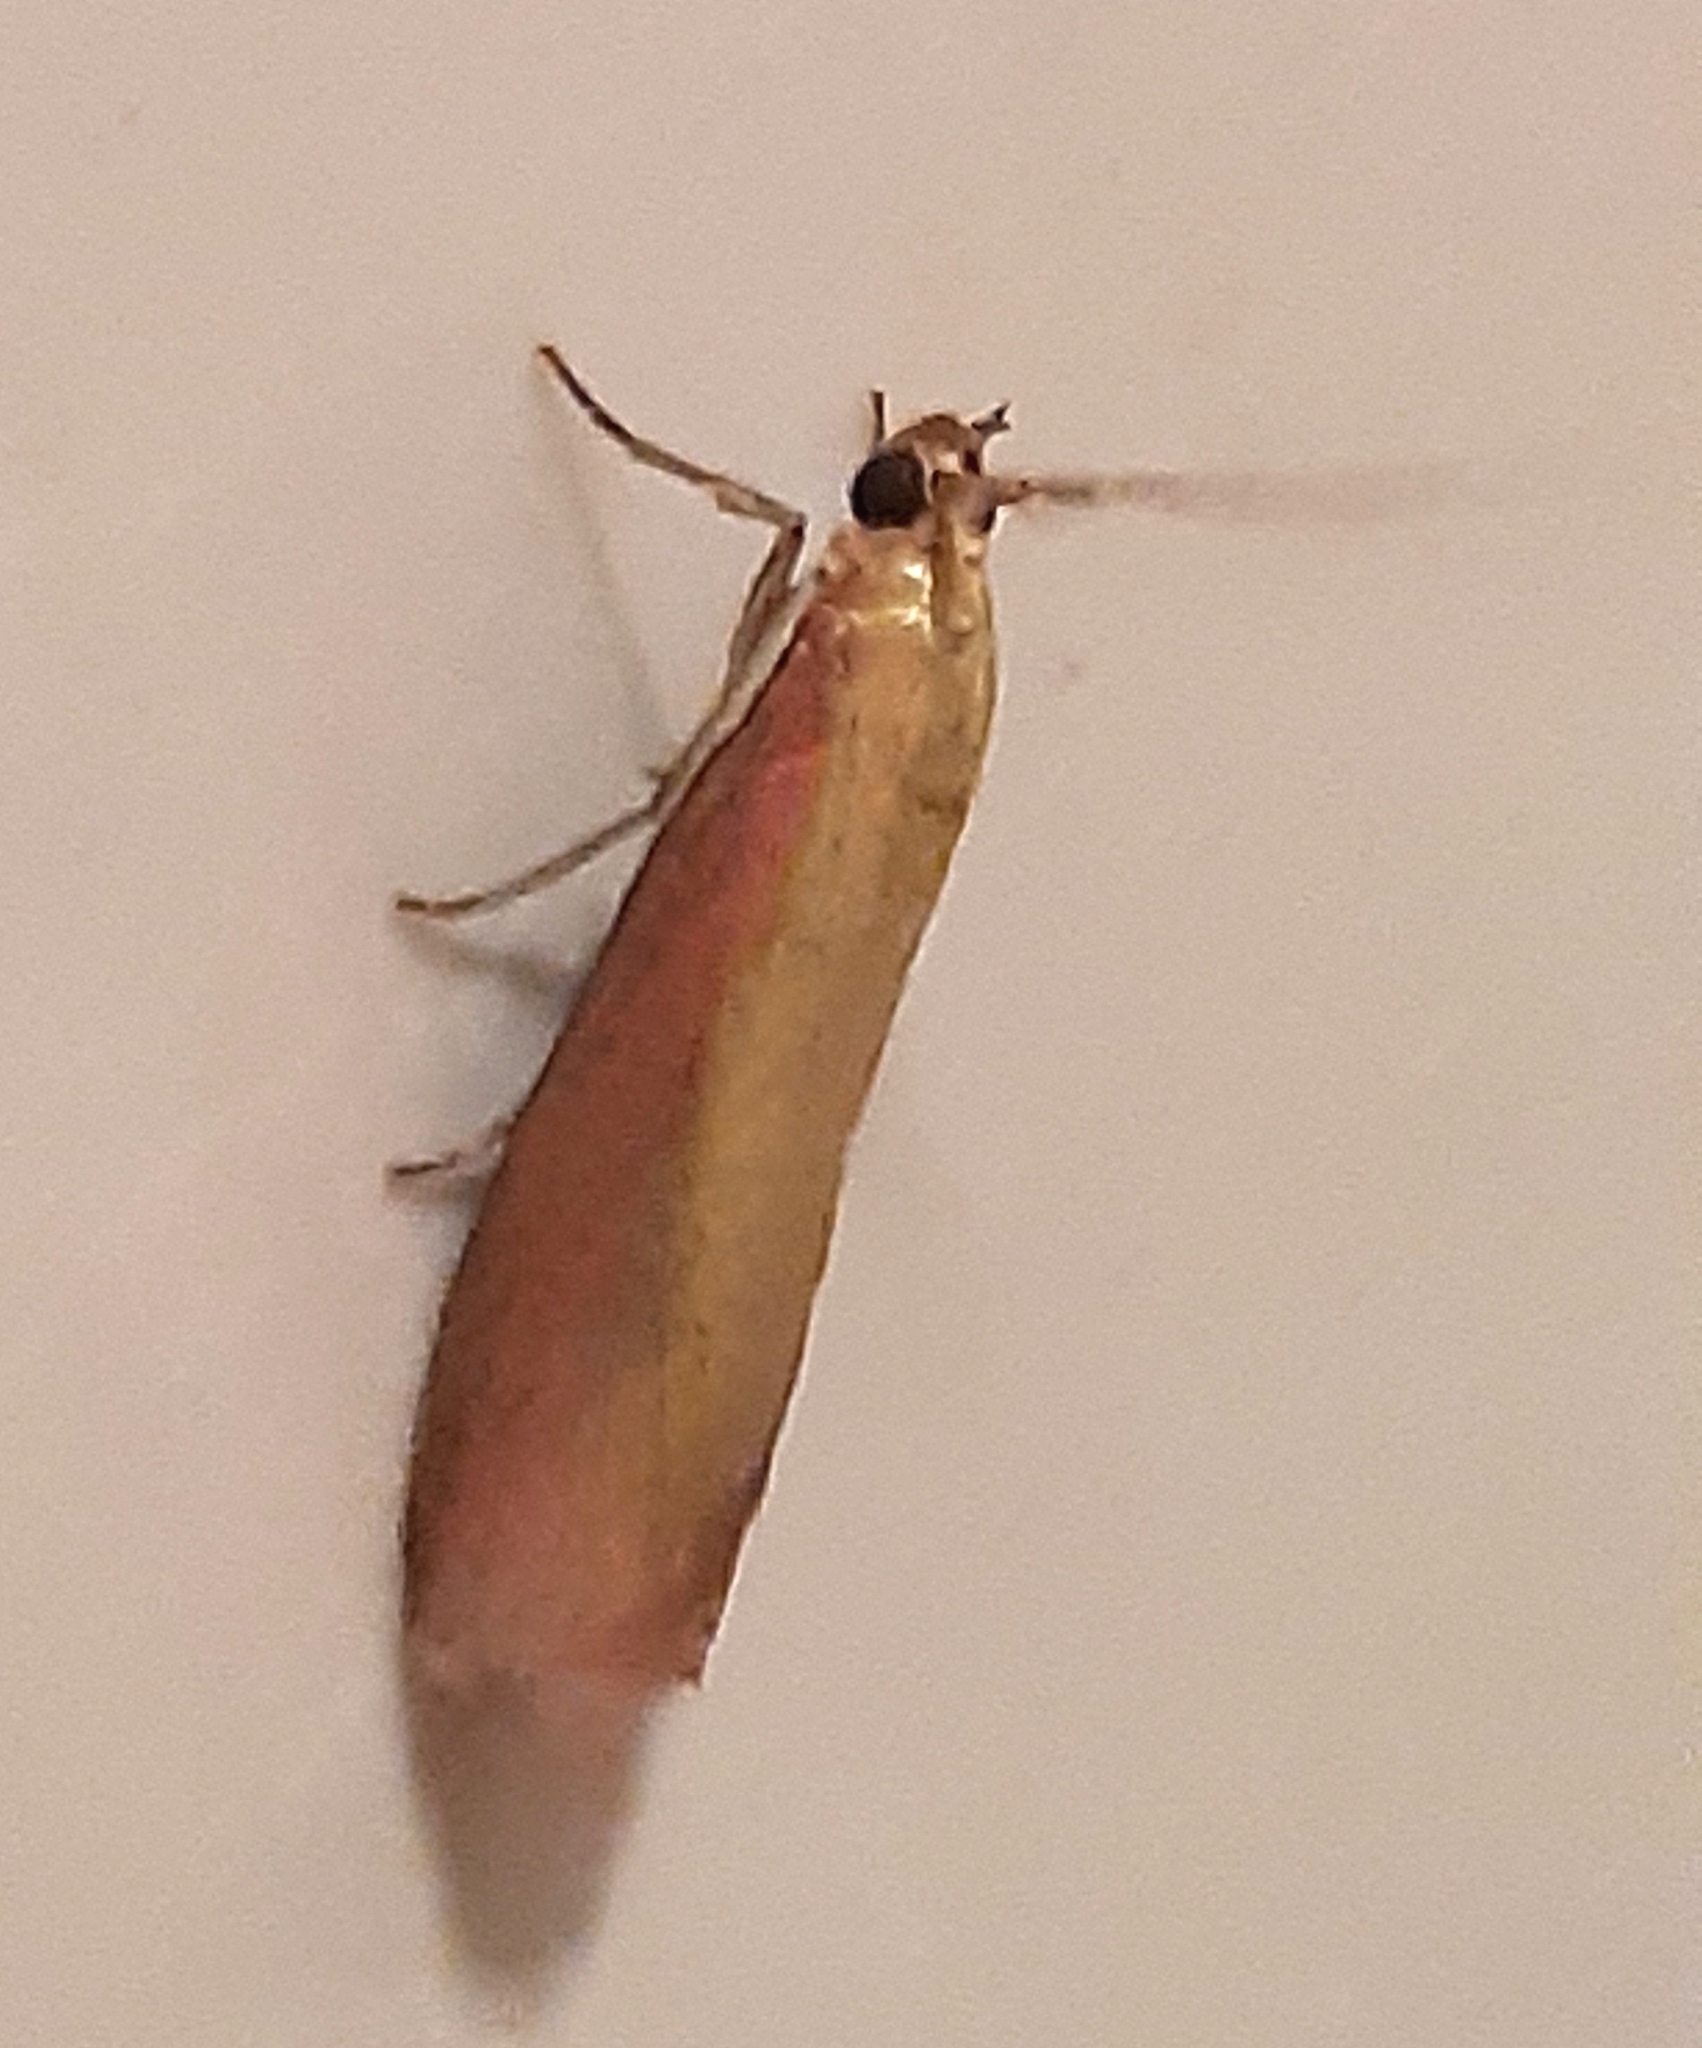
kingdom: Animalia
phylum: Arthropoda
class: Insecta
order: Lepidoptera
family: Pyralidae
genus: Oncocera
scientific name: Oncocera semirubella
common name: Rosy-striped knot-horn
